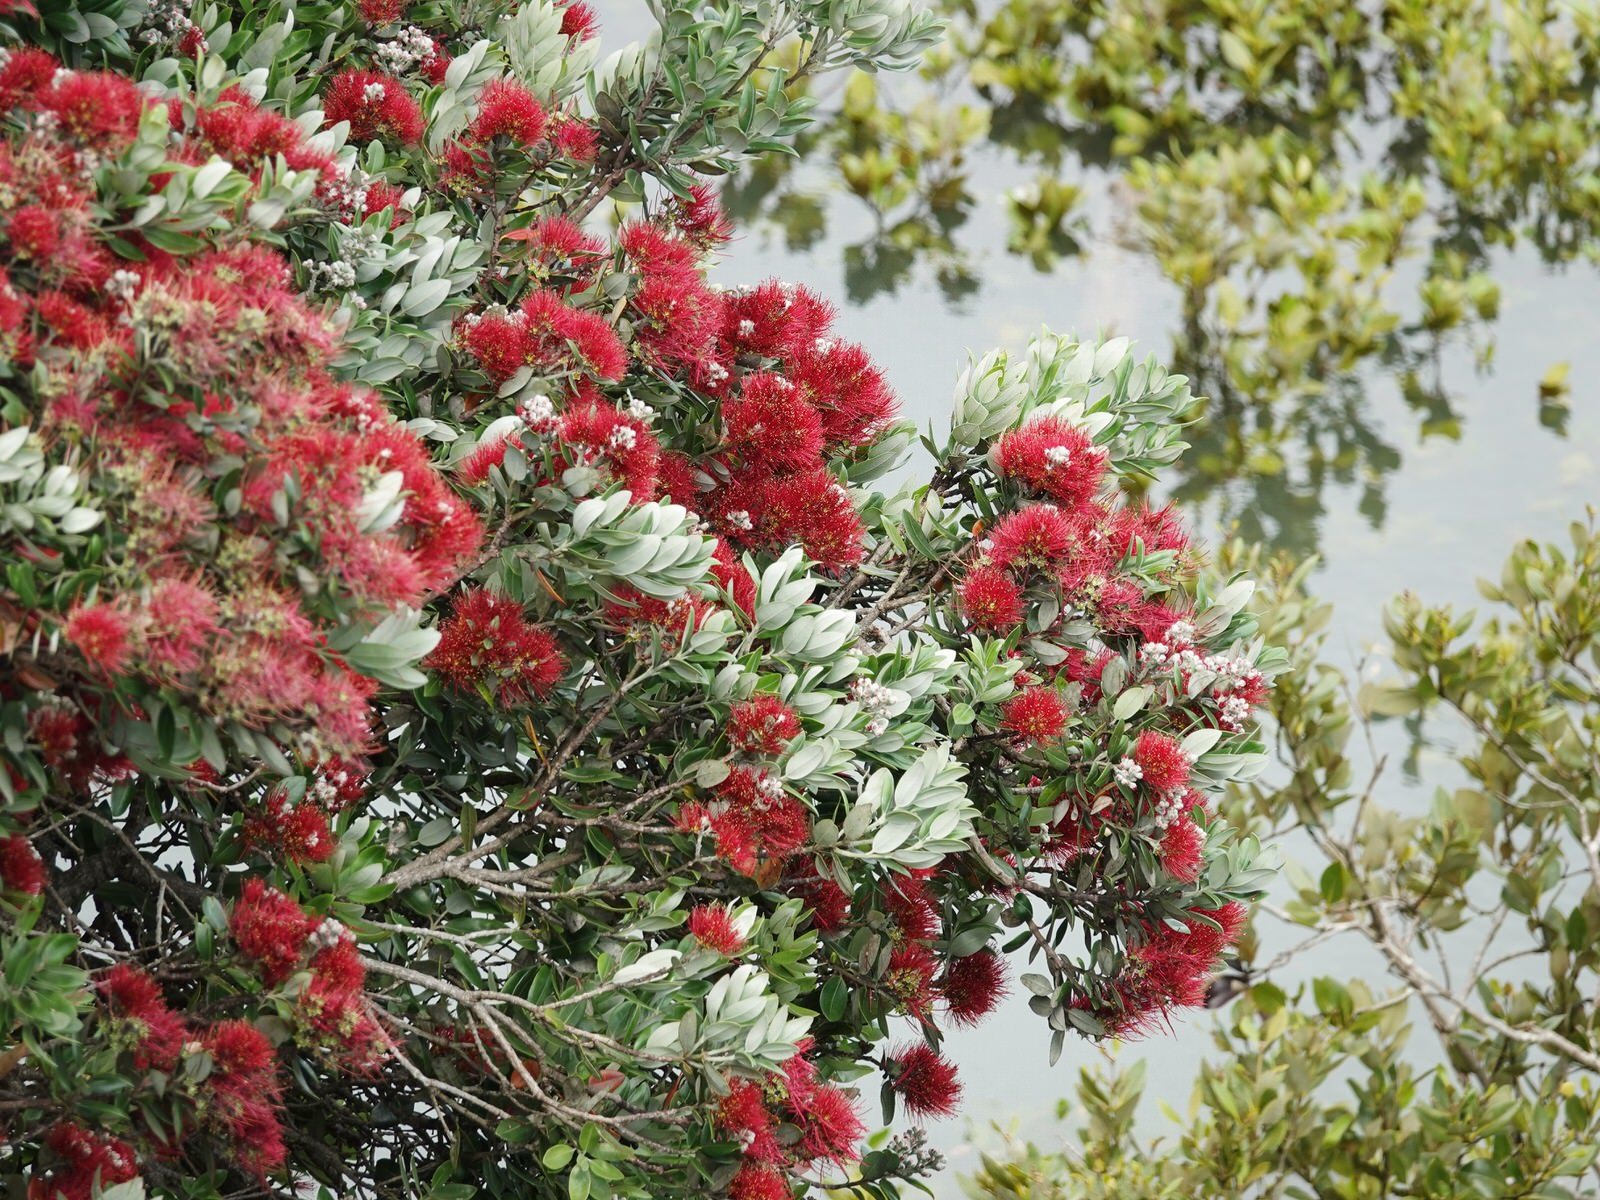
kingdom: Plantae
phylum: Tracheophyta
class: Magnoliopsida
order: Myrtales
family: Myrtaceae
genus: Metrosideros
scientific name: Metrosideros excelsa
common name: New zealand christmastree
